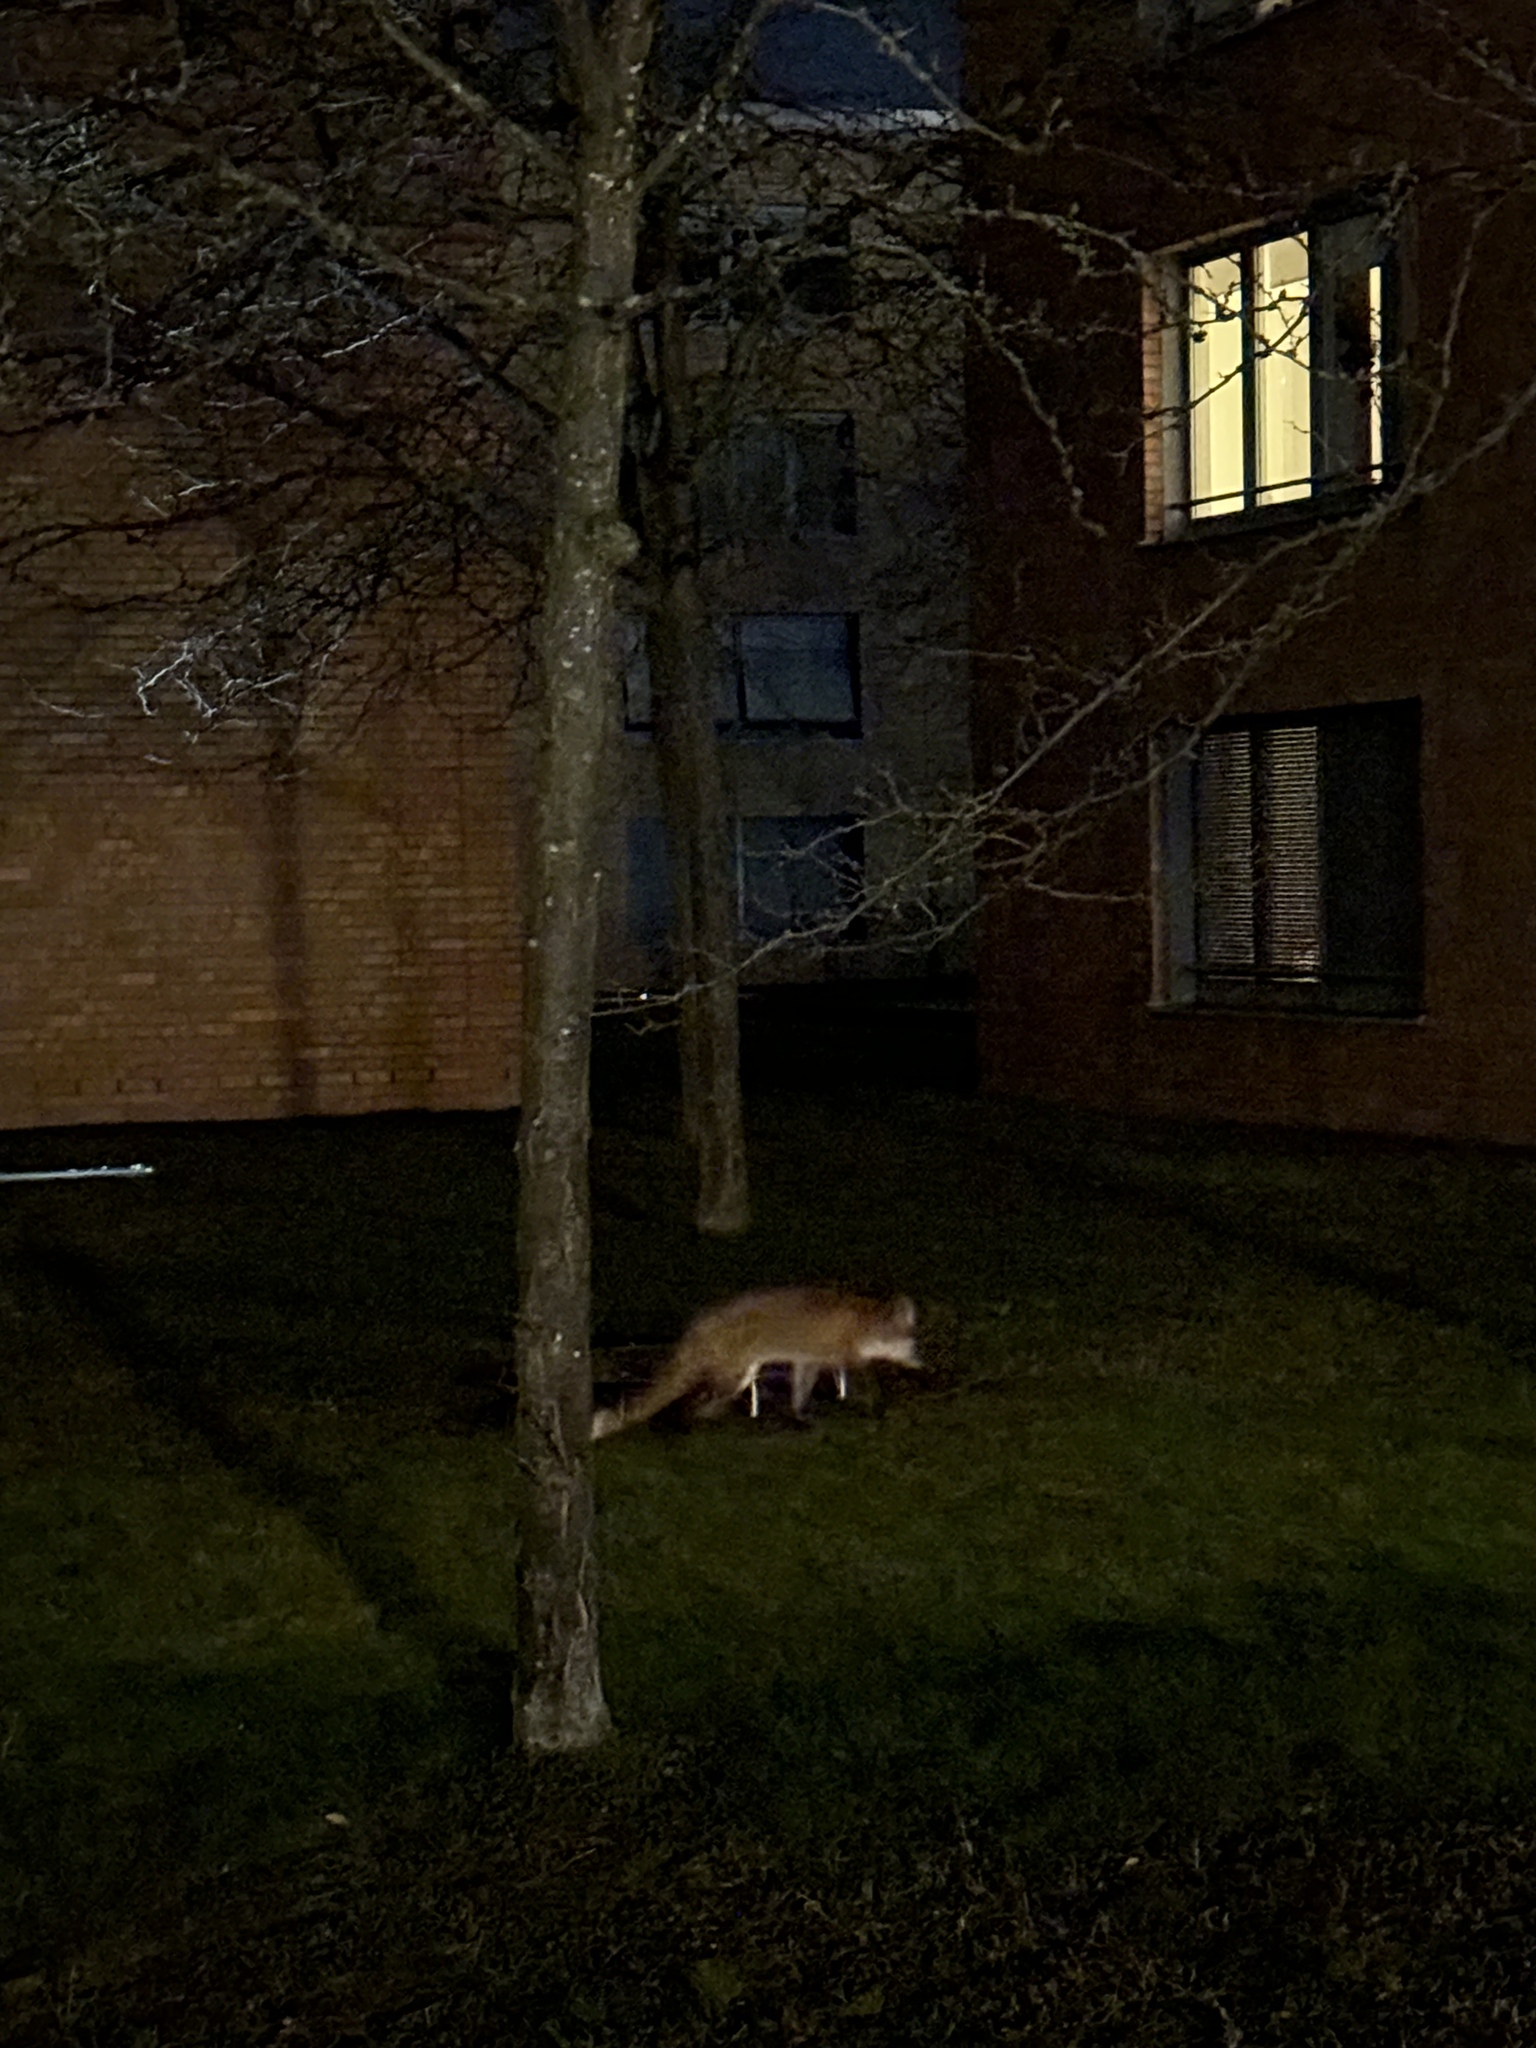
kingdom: Animalia
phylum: Chordata
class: Mammalia
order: Carnivora
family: Canidae
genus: Vulpes
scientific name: Vulpes vulpes
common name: Red fox
